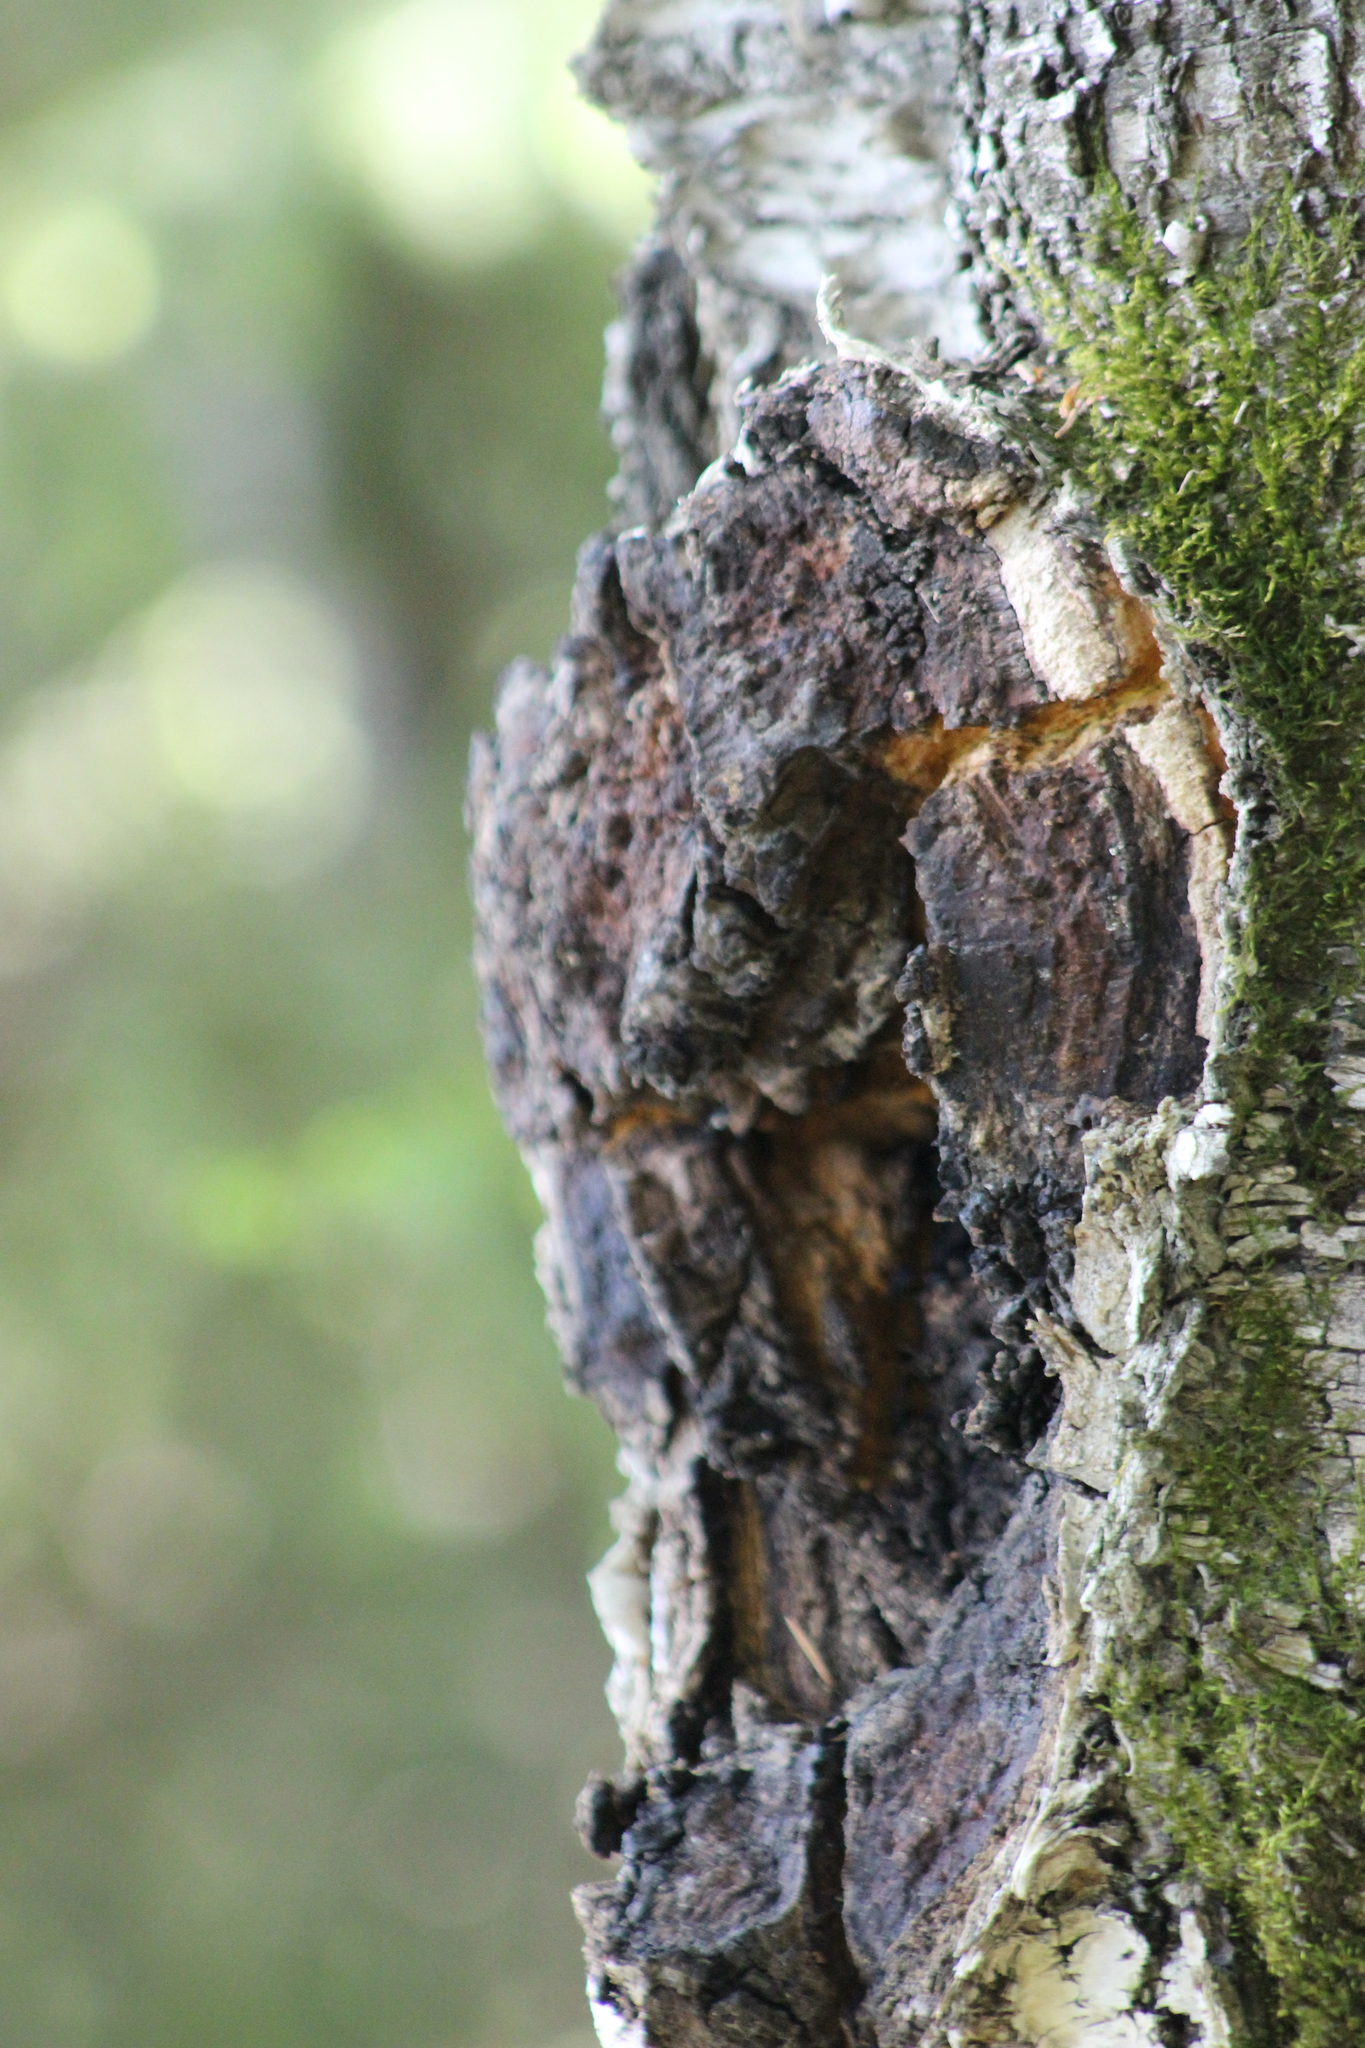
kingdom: Fungi
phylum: Basidiomycota
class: Agaricomycetes
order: Hymenochaetales
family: Hymenochaetaceae
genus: Inonotus
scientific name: Inonotus obliquus
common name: Chaga
